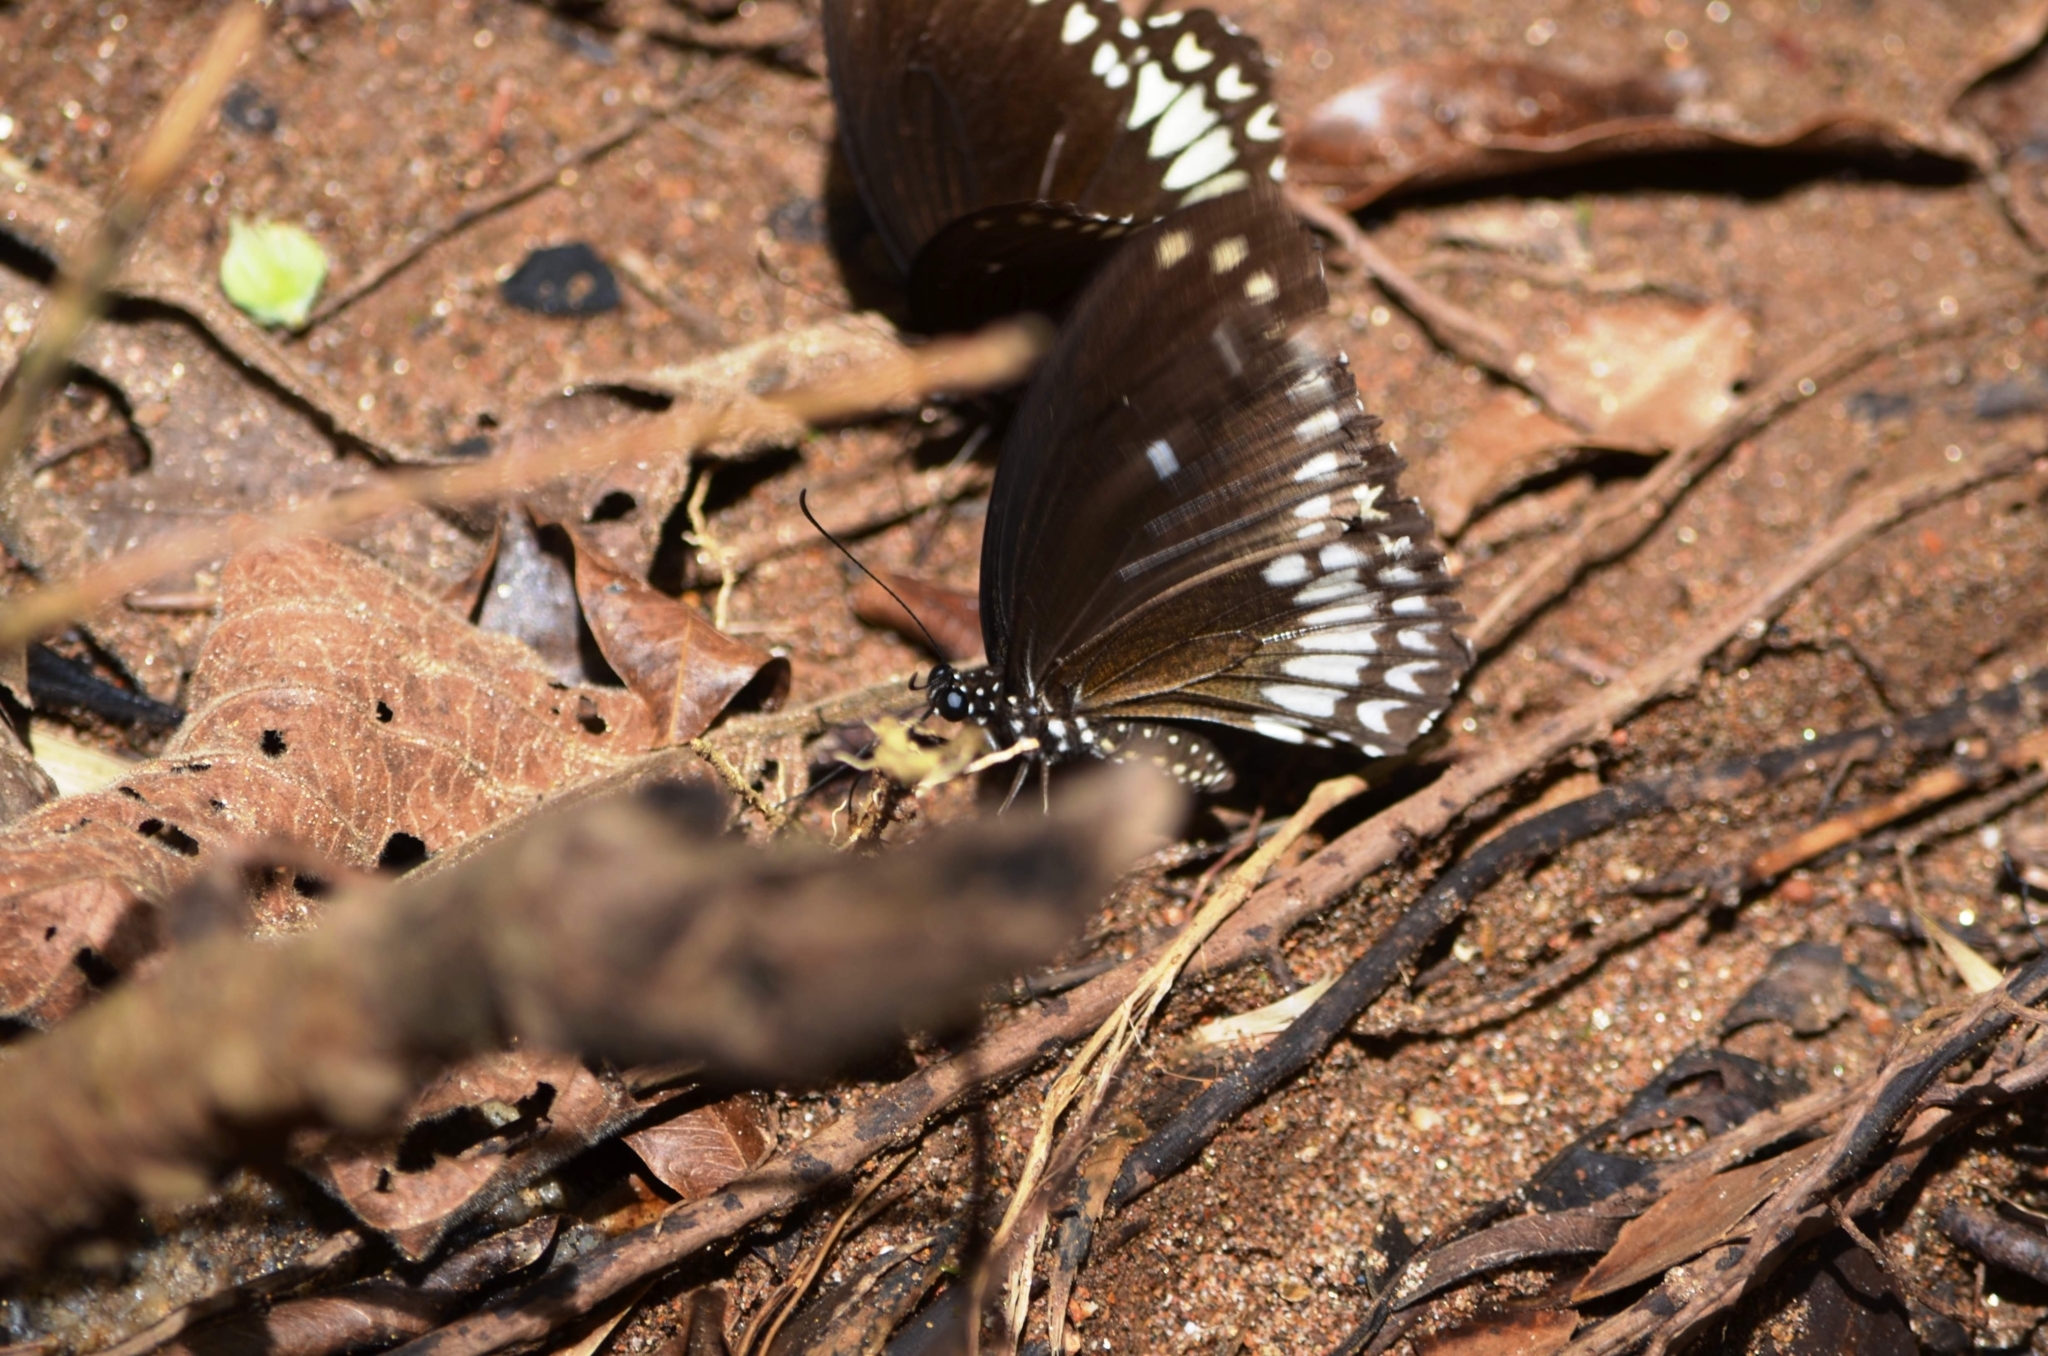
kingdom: Animalia
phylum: Arthropoda
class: Insecta
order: Lepidoptera
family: Papilionidae
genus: Papilio
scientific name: Papilio dravidarum
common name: Malabar raven
